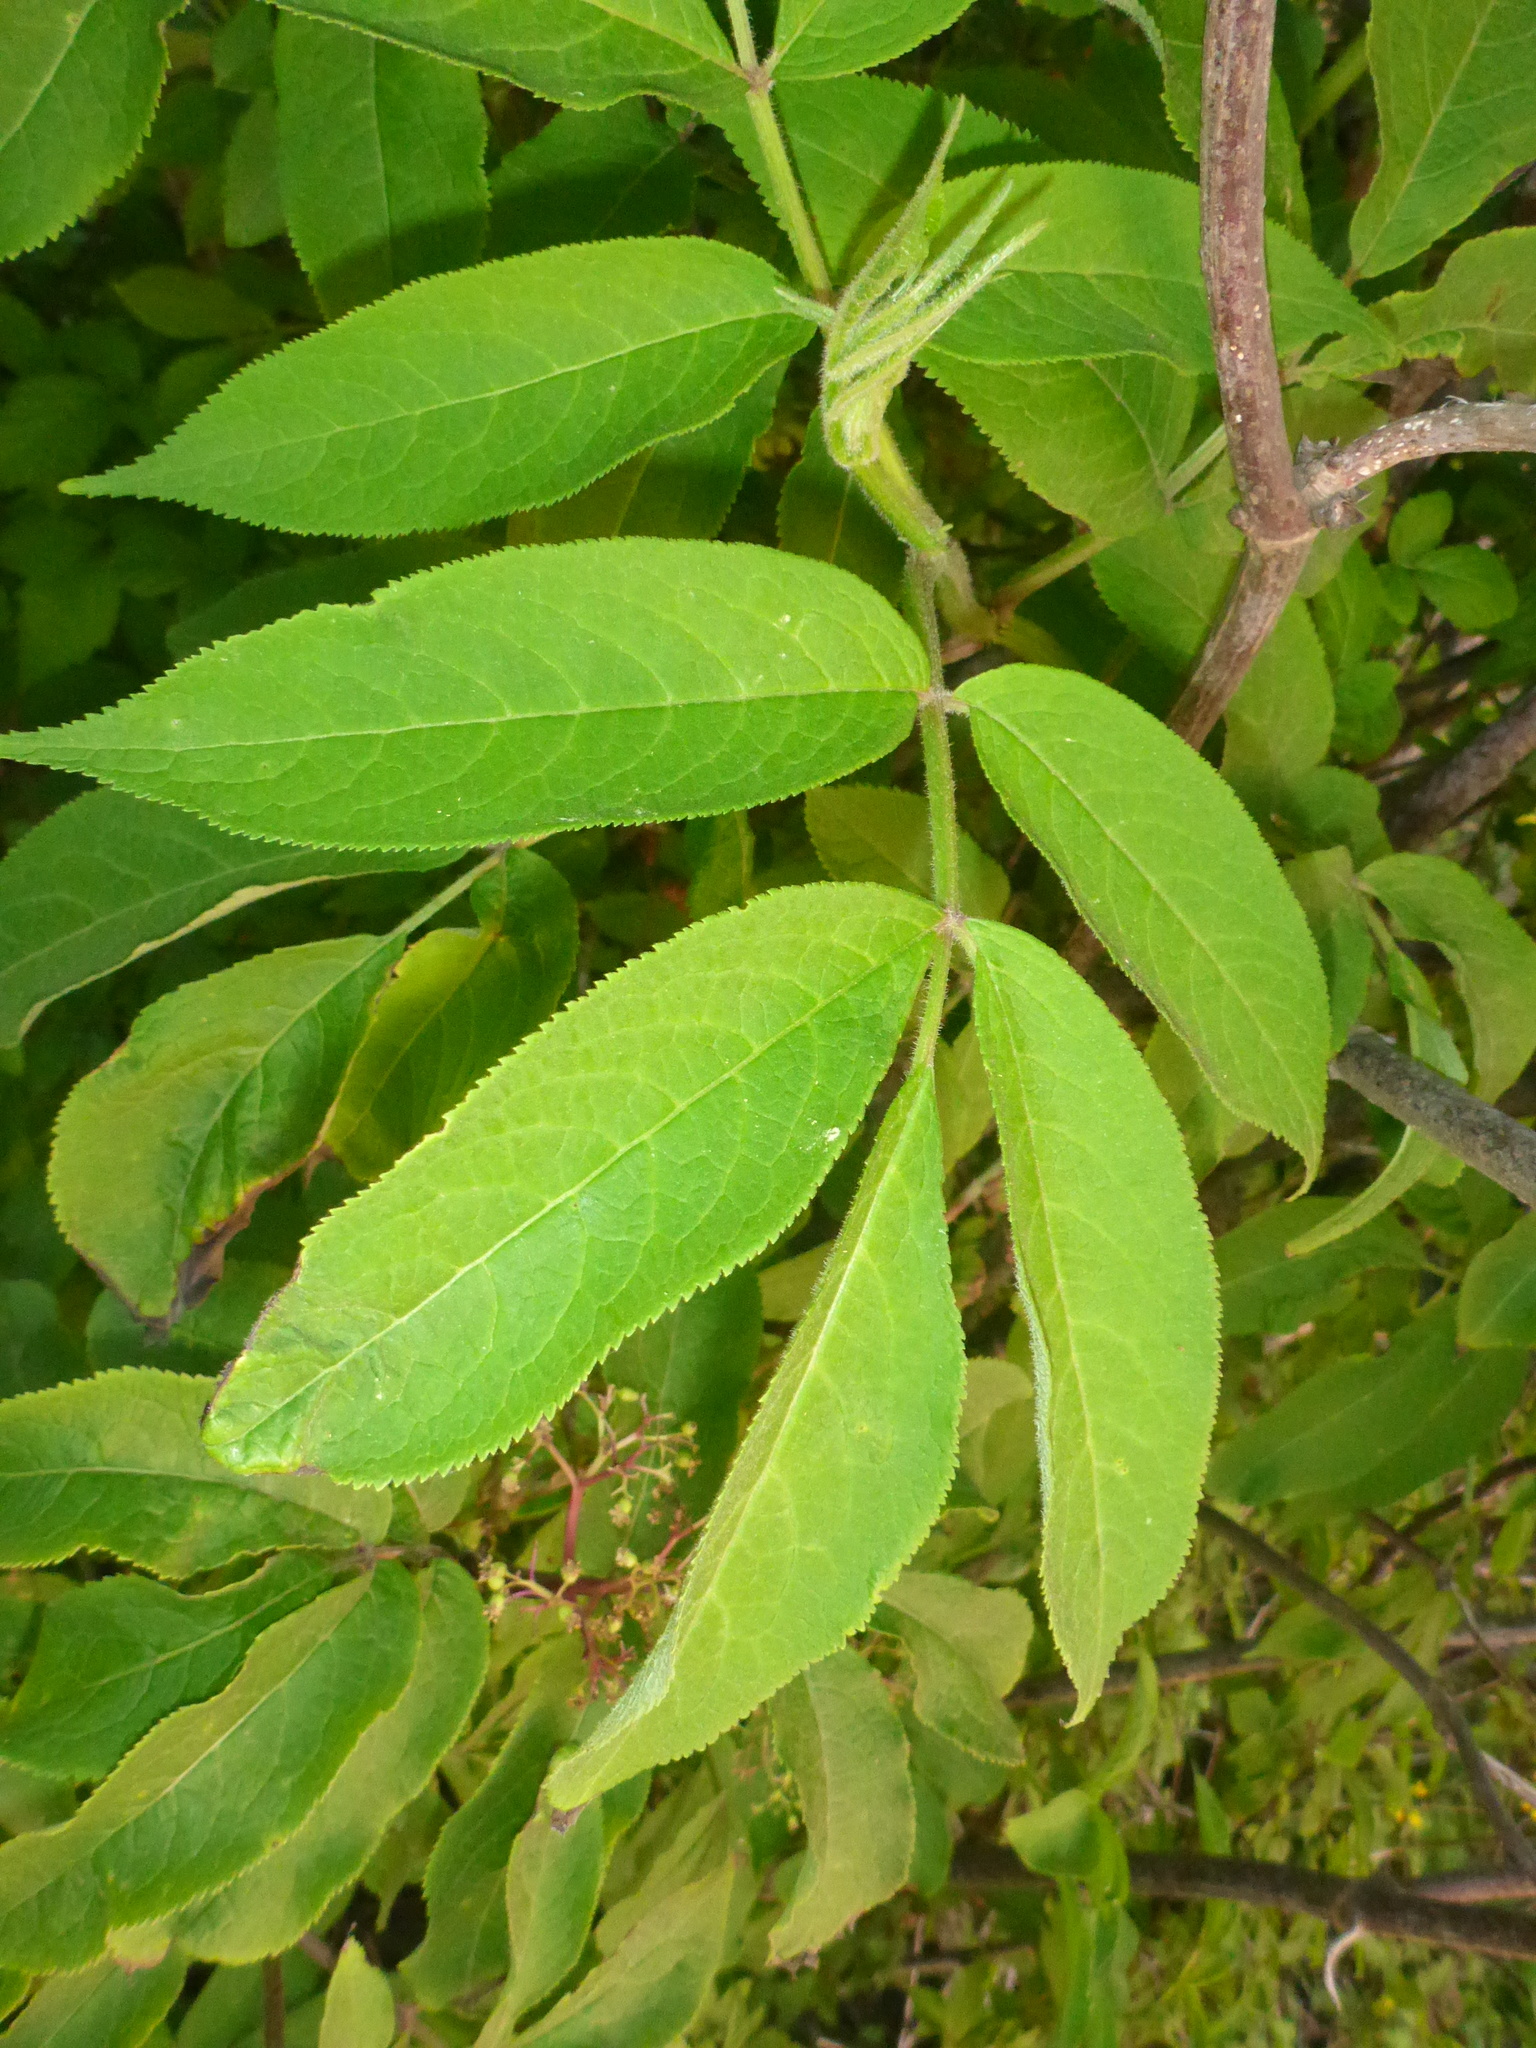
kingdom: Plantae
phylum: Tracheophyta
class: Magnoliopsida
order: Dipsacales
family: Viburnaceae
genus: Sambucus
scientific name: Sambucus racemosa
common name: Red-berried elder
